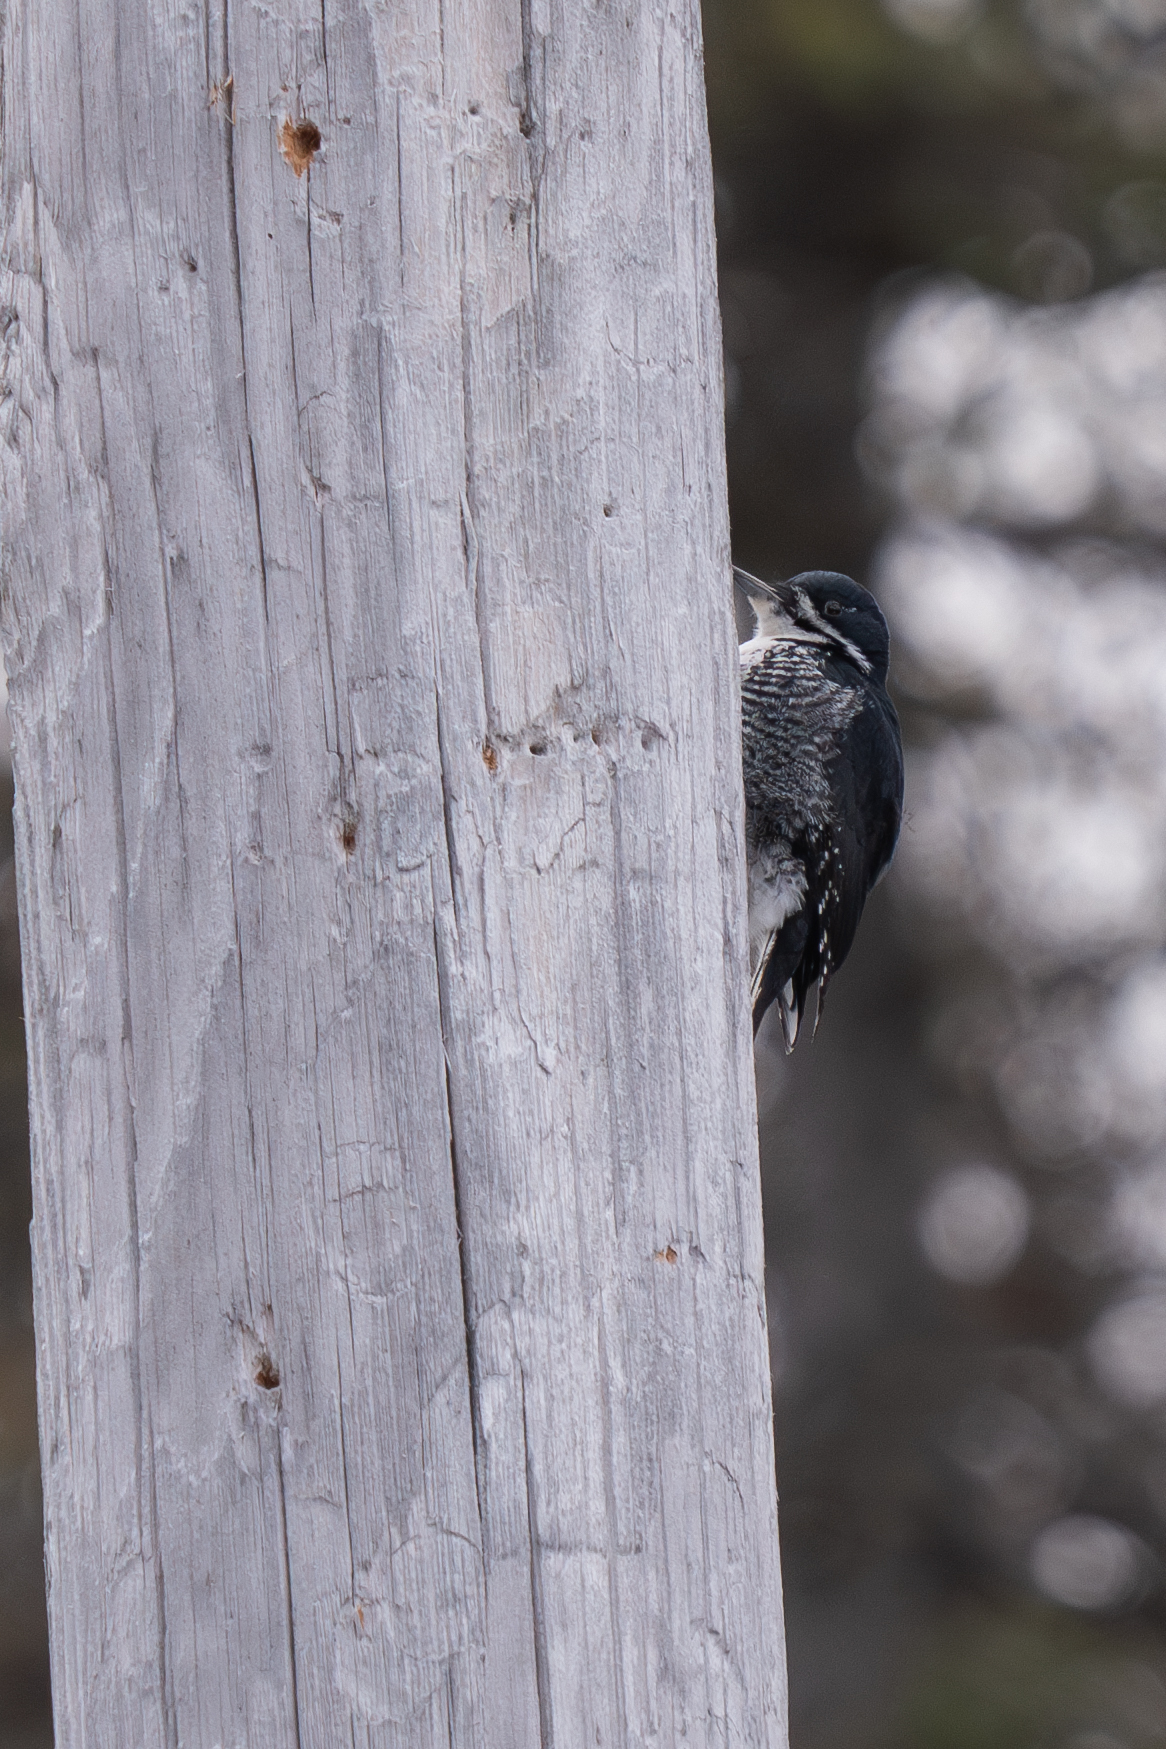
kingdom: Animalia
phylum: Chordata
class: Aves
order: Piciformes
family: Picidae
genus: Picoides
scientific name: Picoides arcticus
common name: Black-backed woodpecker
